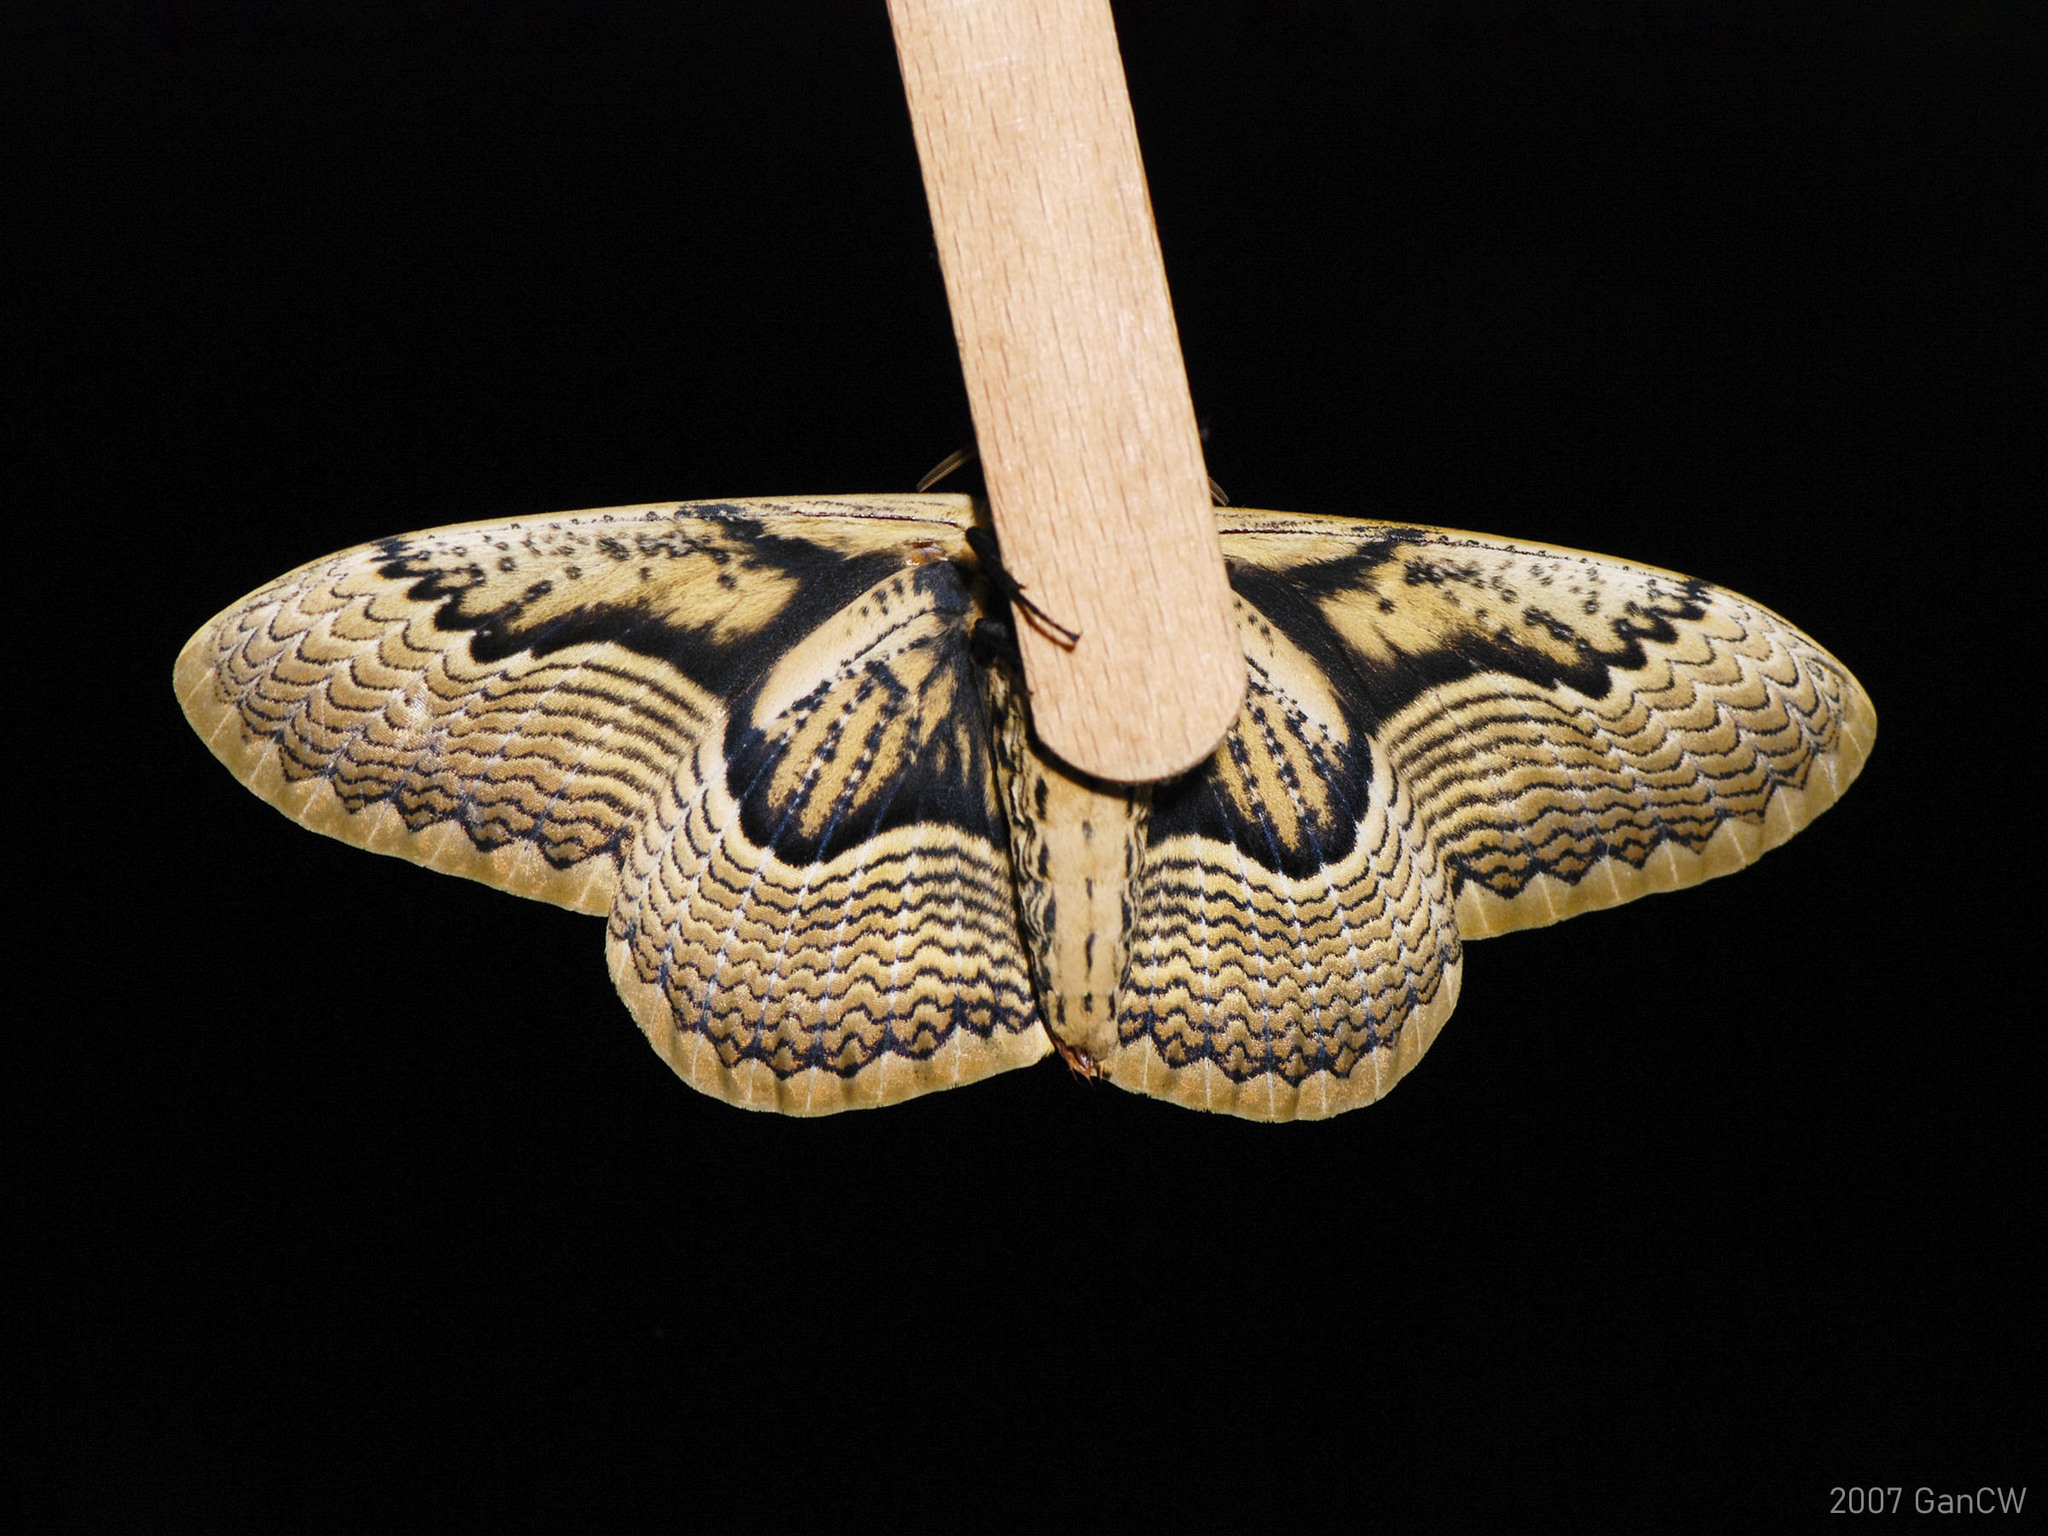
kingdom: Animalia
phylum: Arthropoda
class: Insecta
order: Lepidoptera
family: Brahmaeidae
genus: Brahmaea
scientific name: Brahmaea hearseyi
